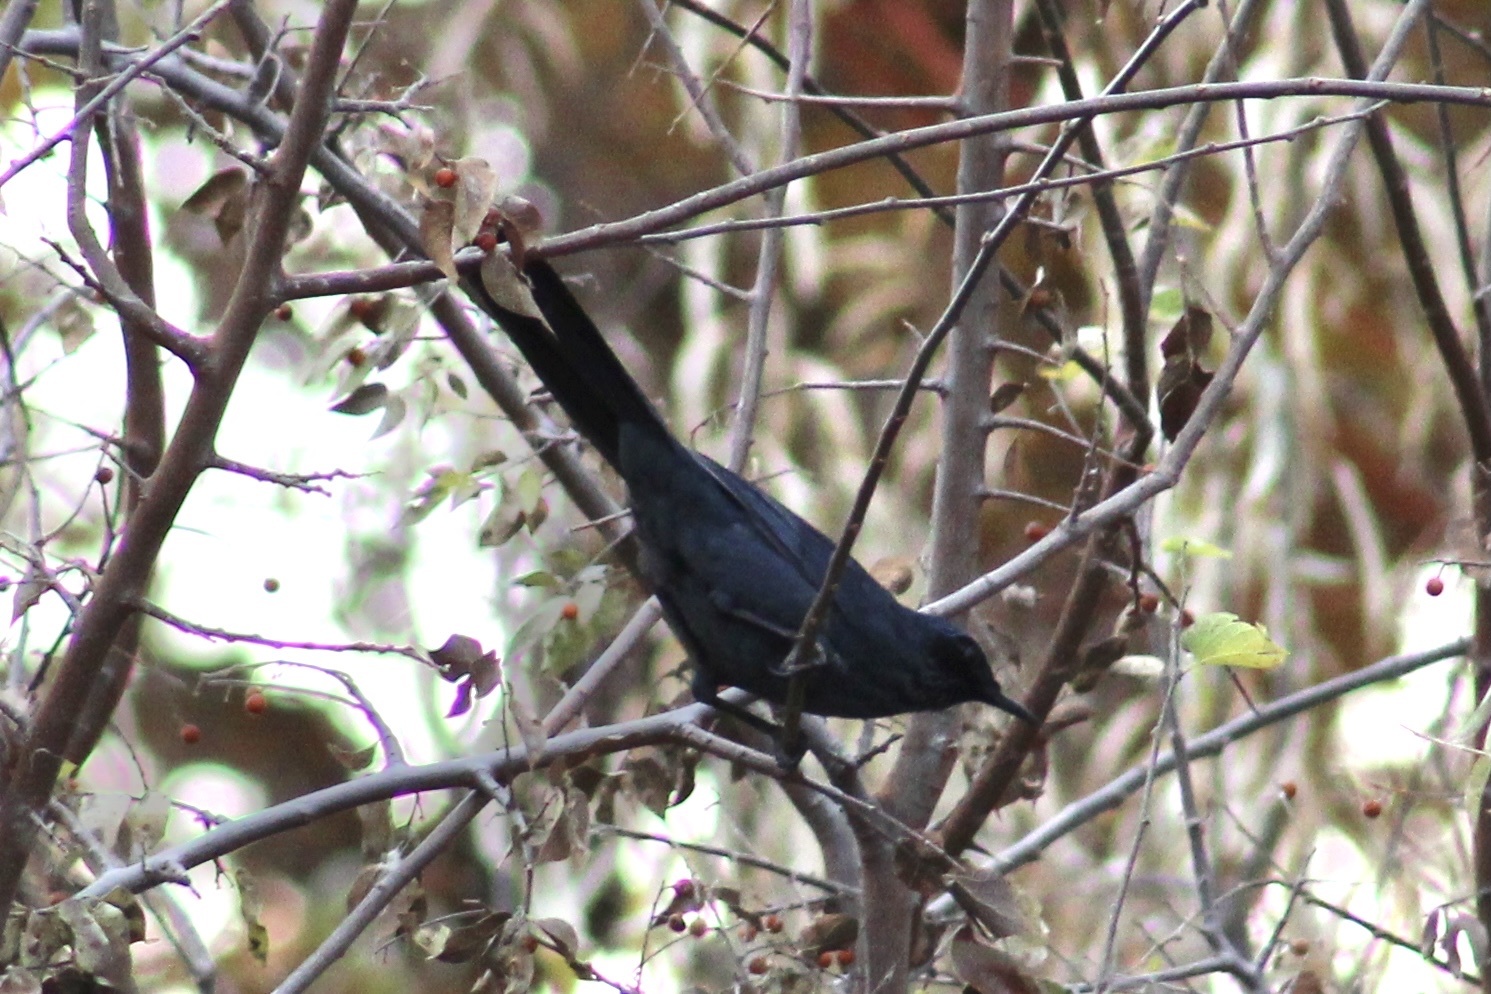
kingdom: Animalia
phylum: Chordata
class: Aves
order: Passeriformes
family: Mimidae
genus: Melanotis
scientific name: Melanotis caerulescens
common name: Blue mockingbird
